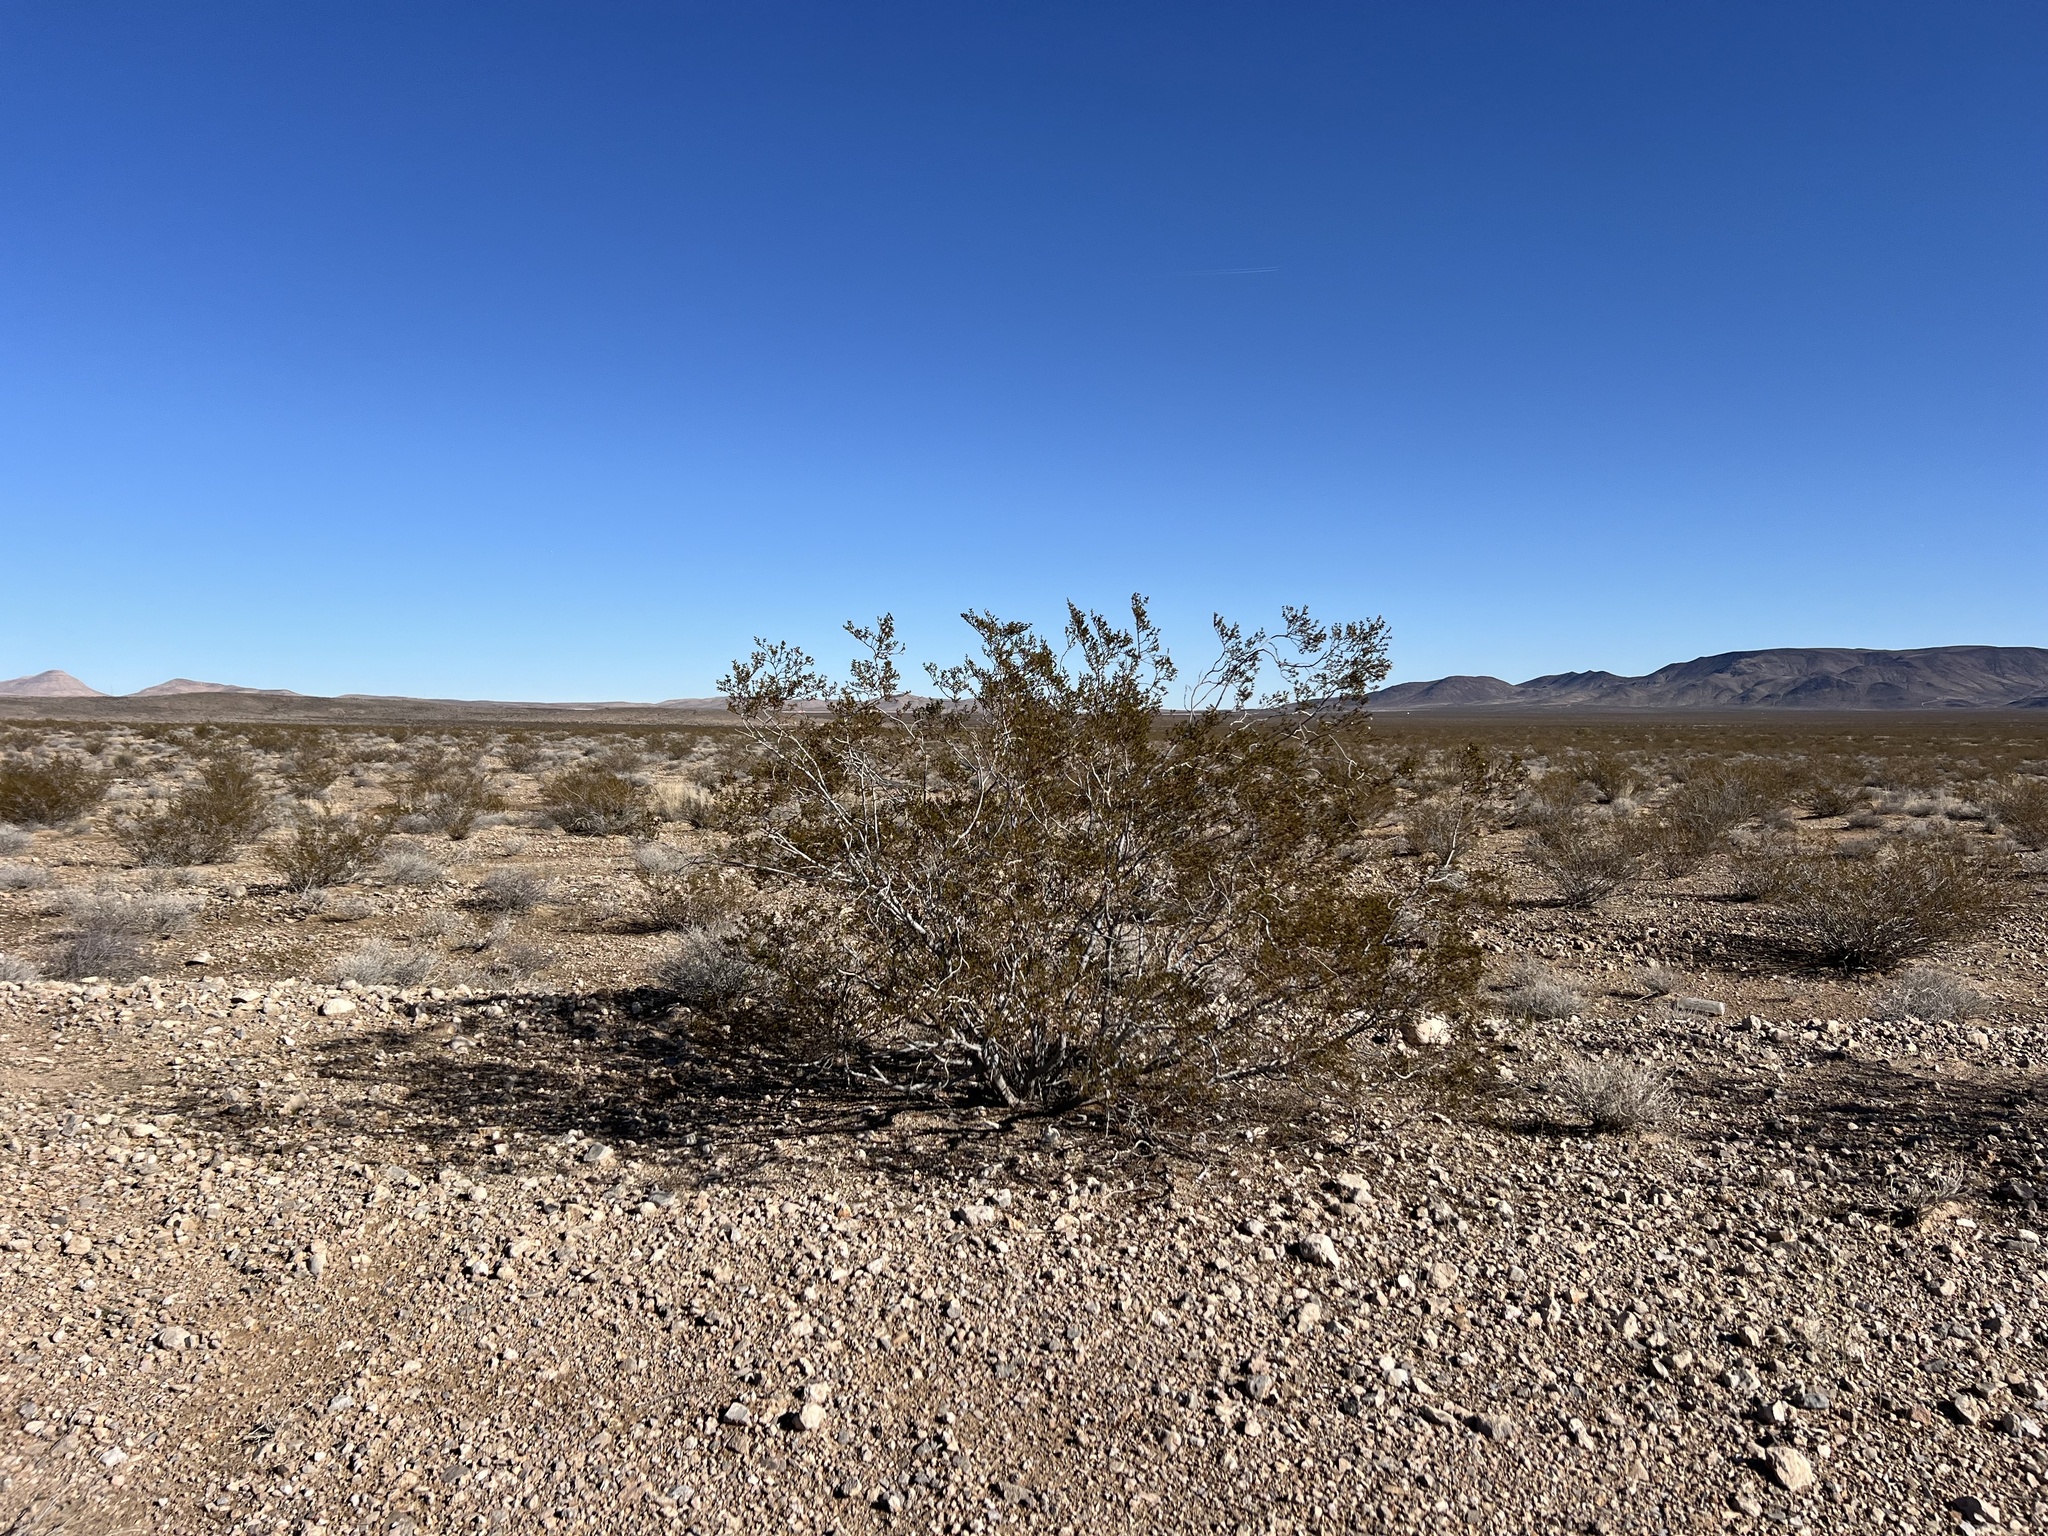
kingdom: Plantae
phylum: Tracheophyta
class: Magnoliopsida
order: Zygophyllales
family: Zygophyllaceae
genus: Larrea
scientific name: Larrea tridentata
